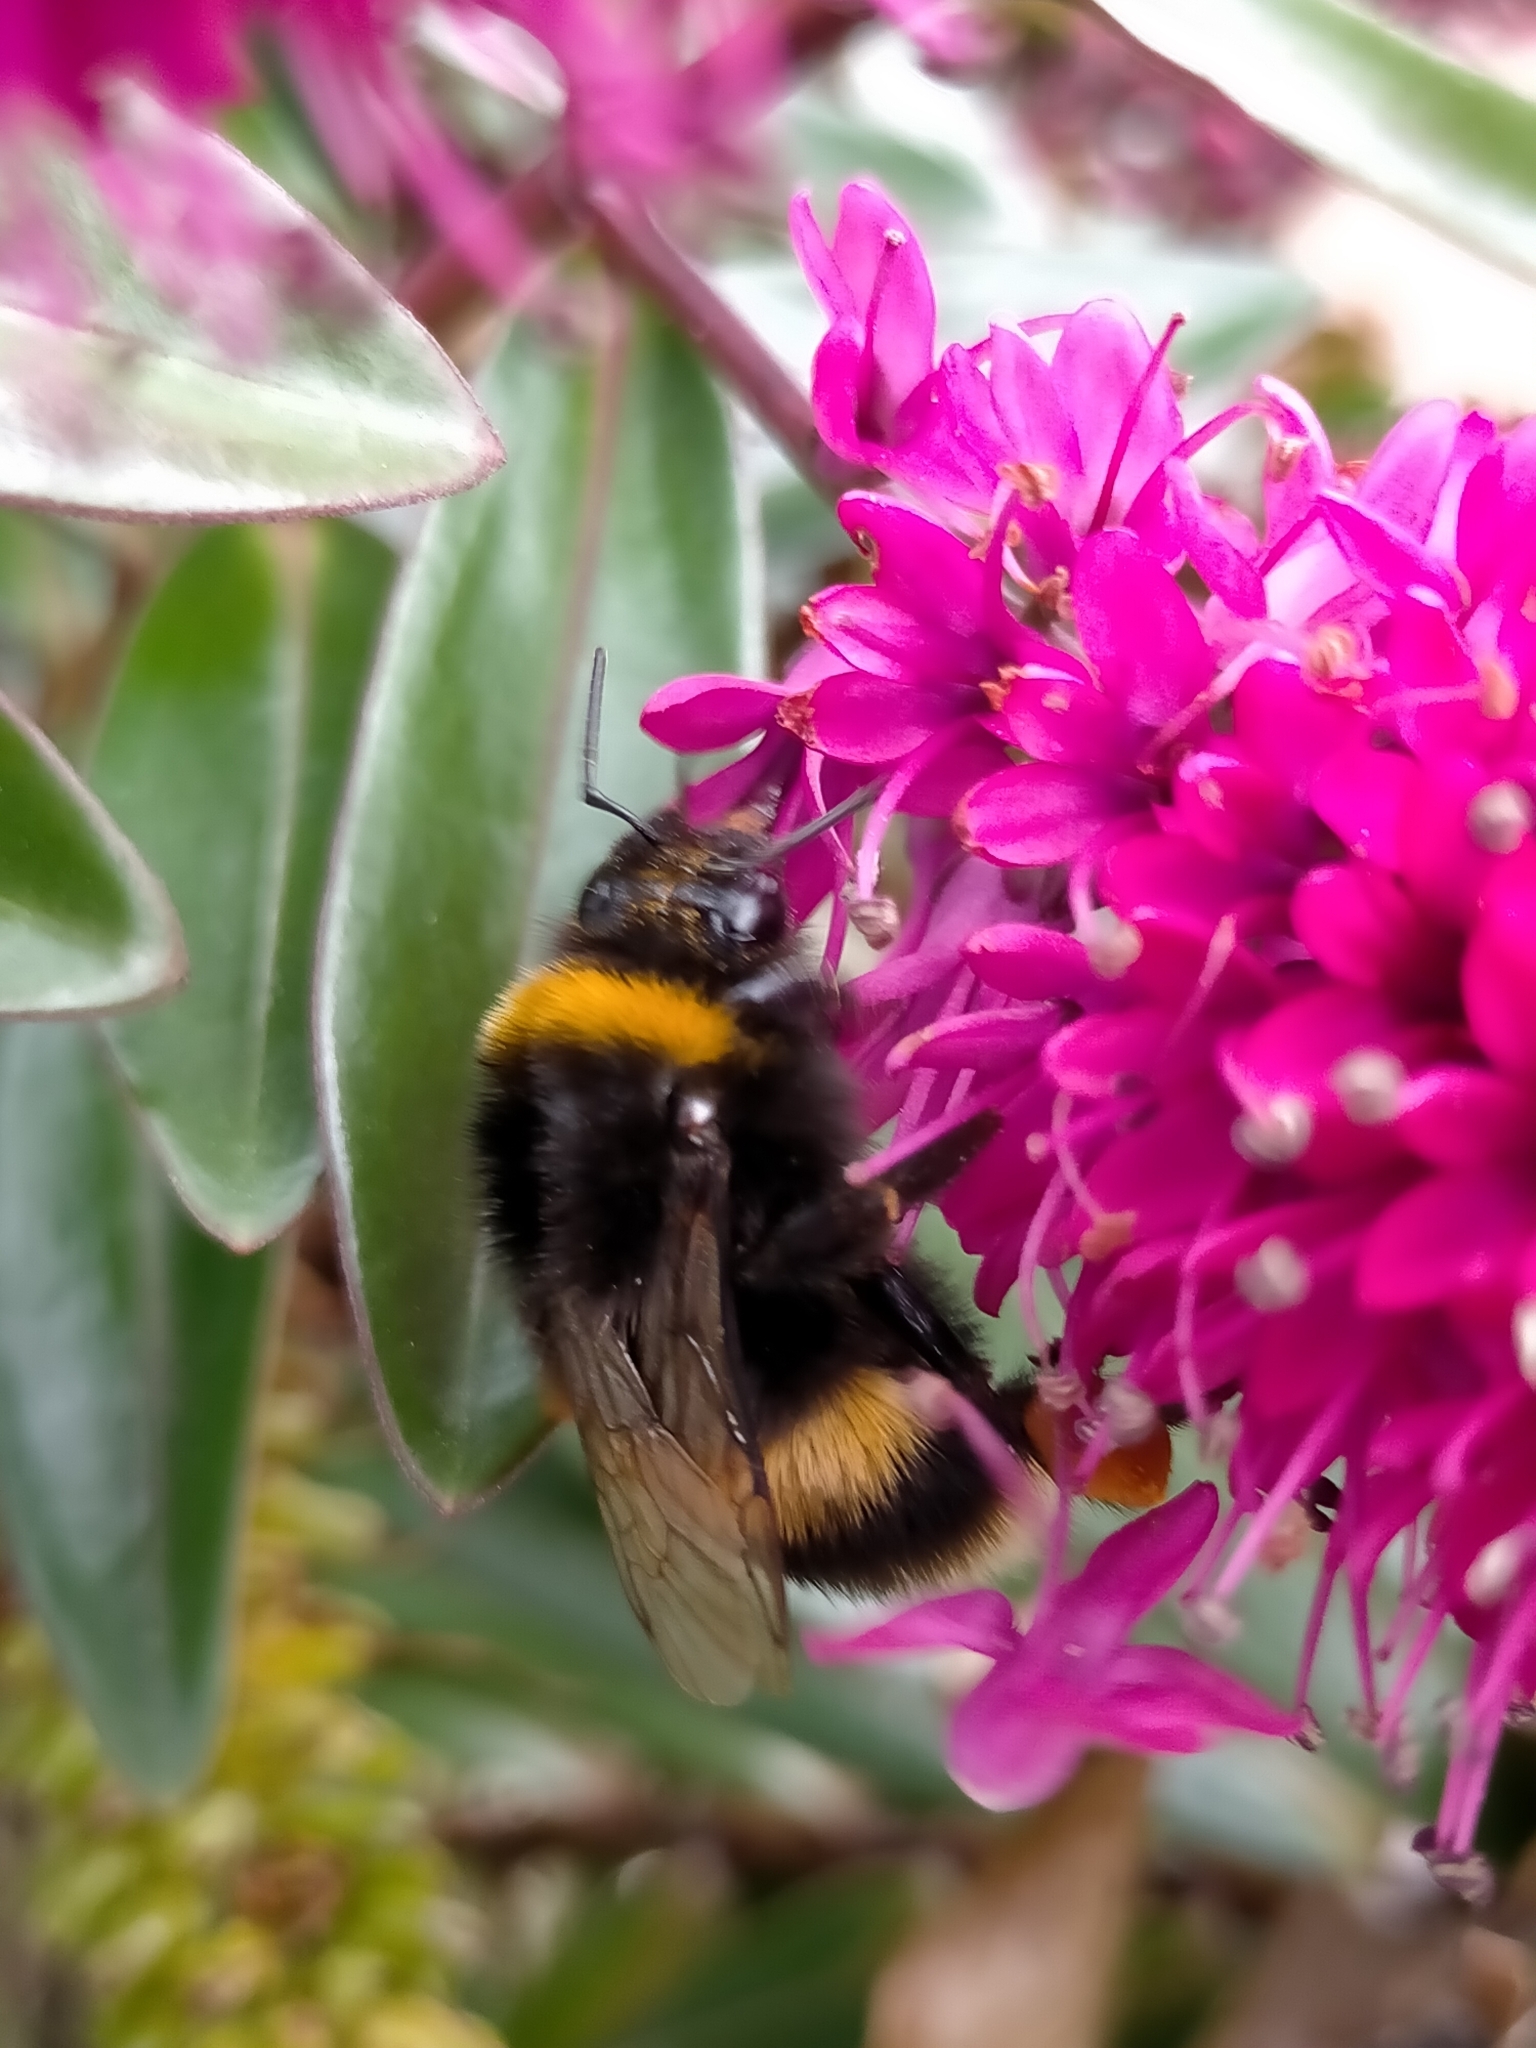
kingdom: Animalia
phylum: Arthropoda
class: Insecta
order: Hymenoptera
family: Apidae
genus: Bombus
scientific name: Bombus terrestris
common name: Buff-tailed bumblebee
